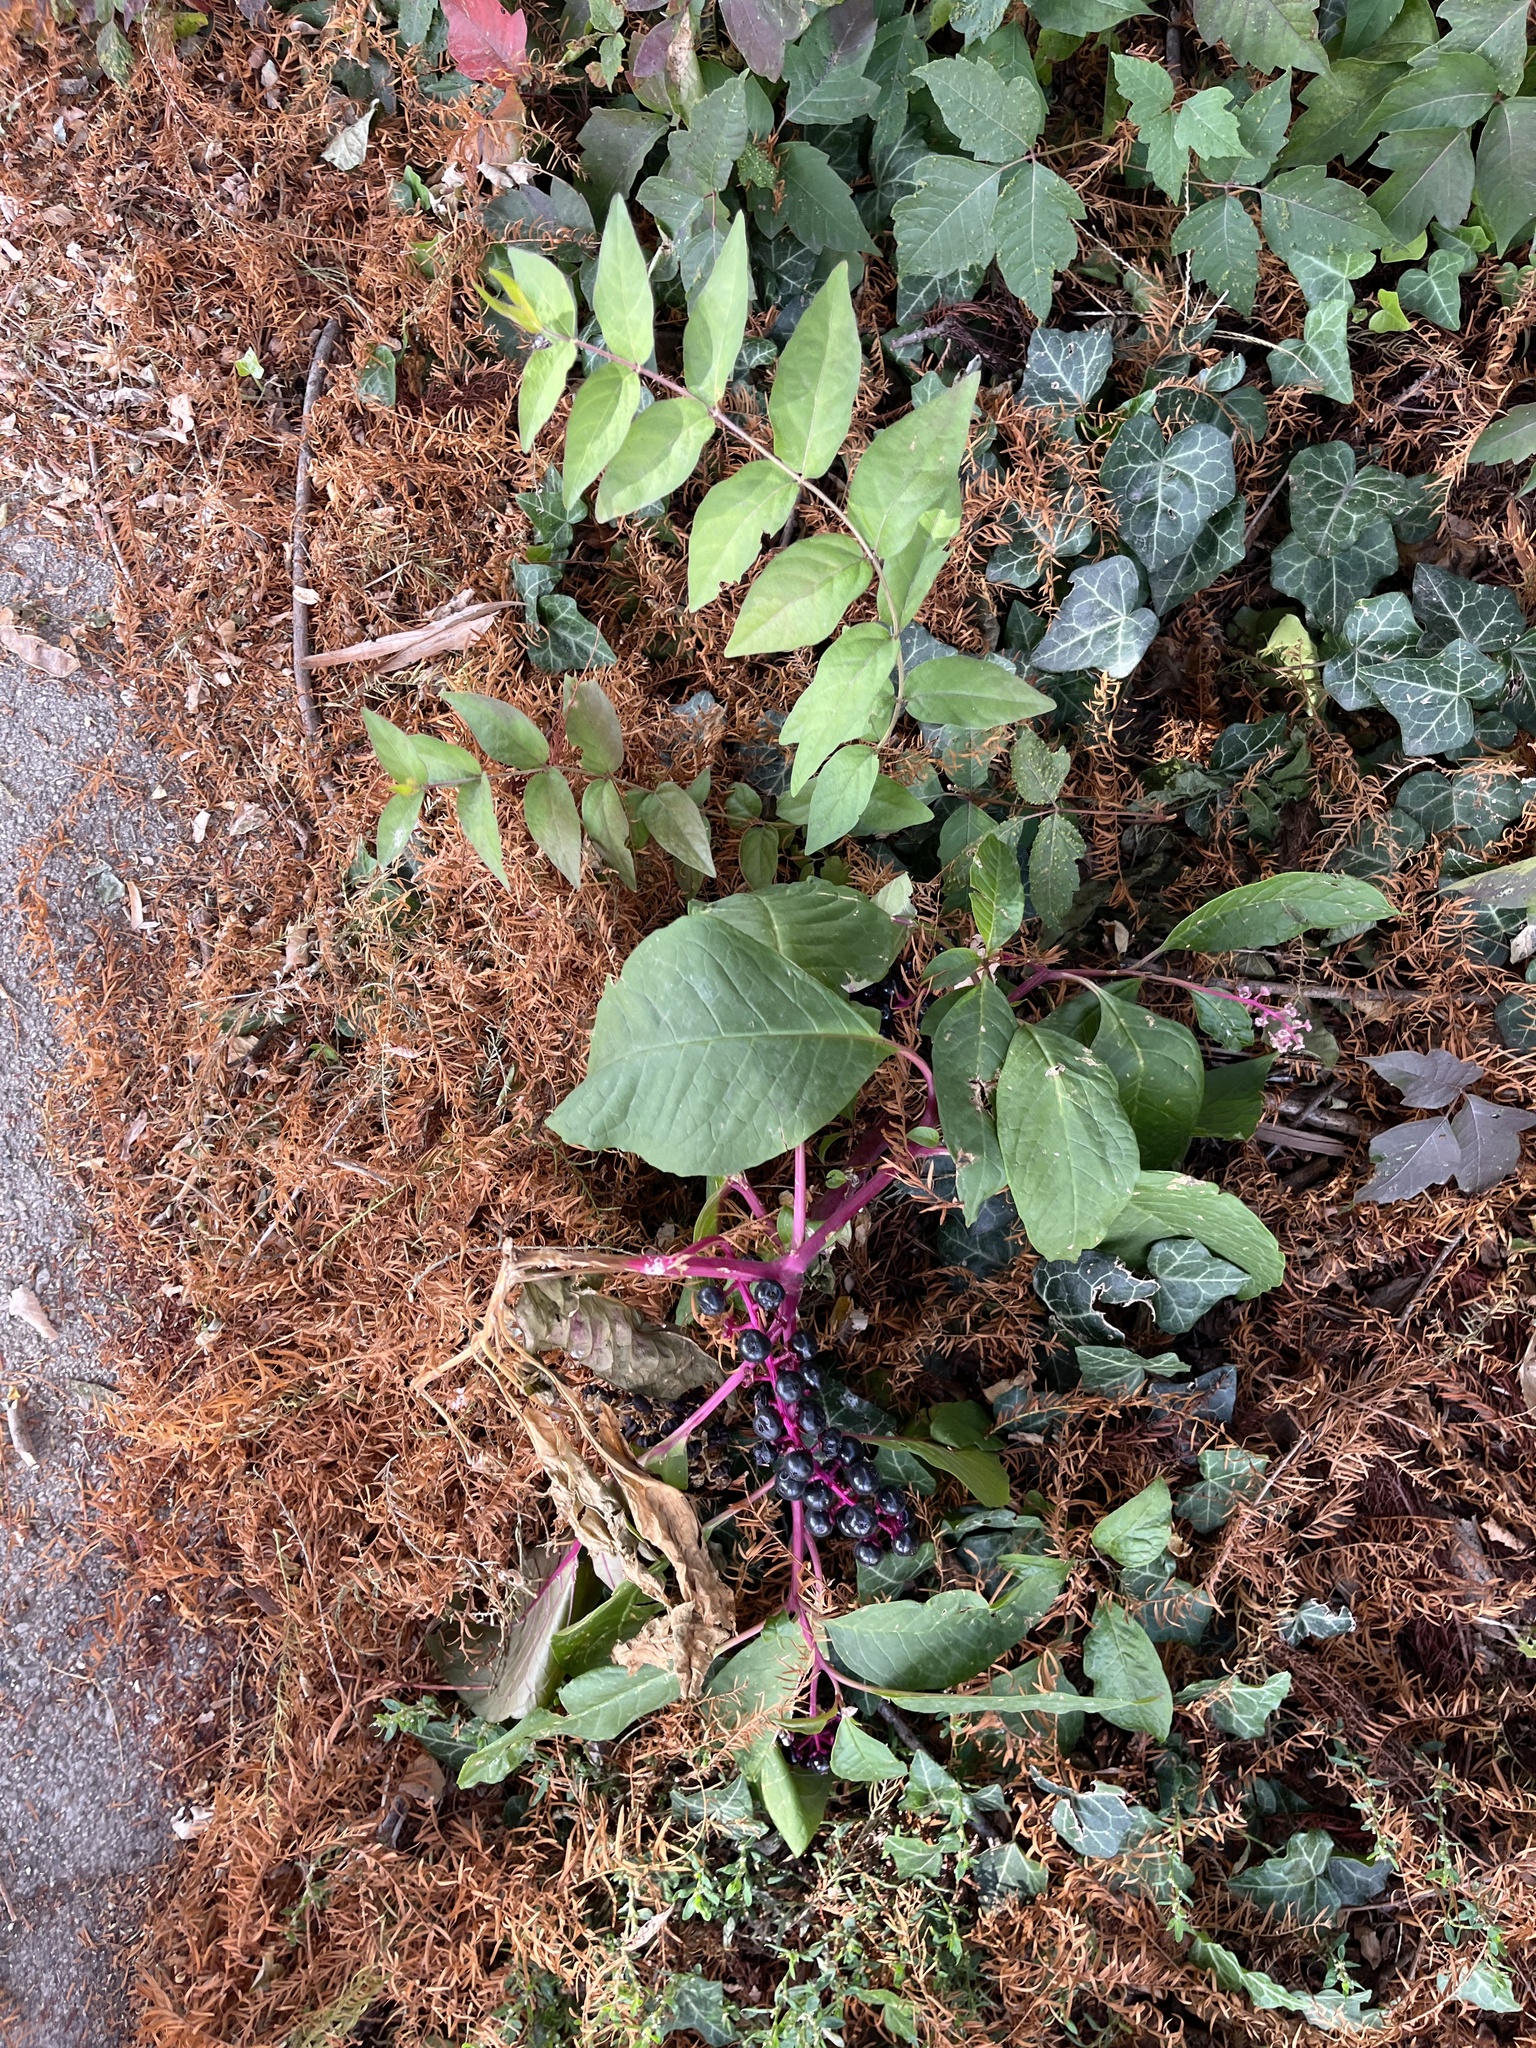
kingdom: Plantae
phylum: Tracheophyta
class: Magnoliopsida
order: Caryophyllales
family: Phytolaccaceae
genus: Phytolacca
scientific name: Phytolacca americana
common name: American pokeweed
